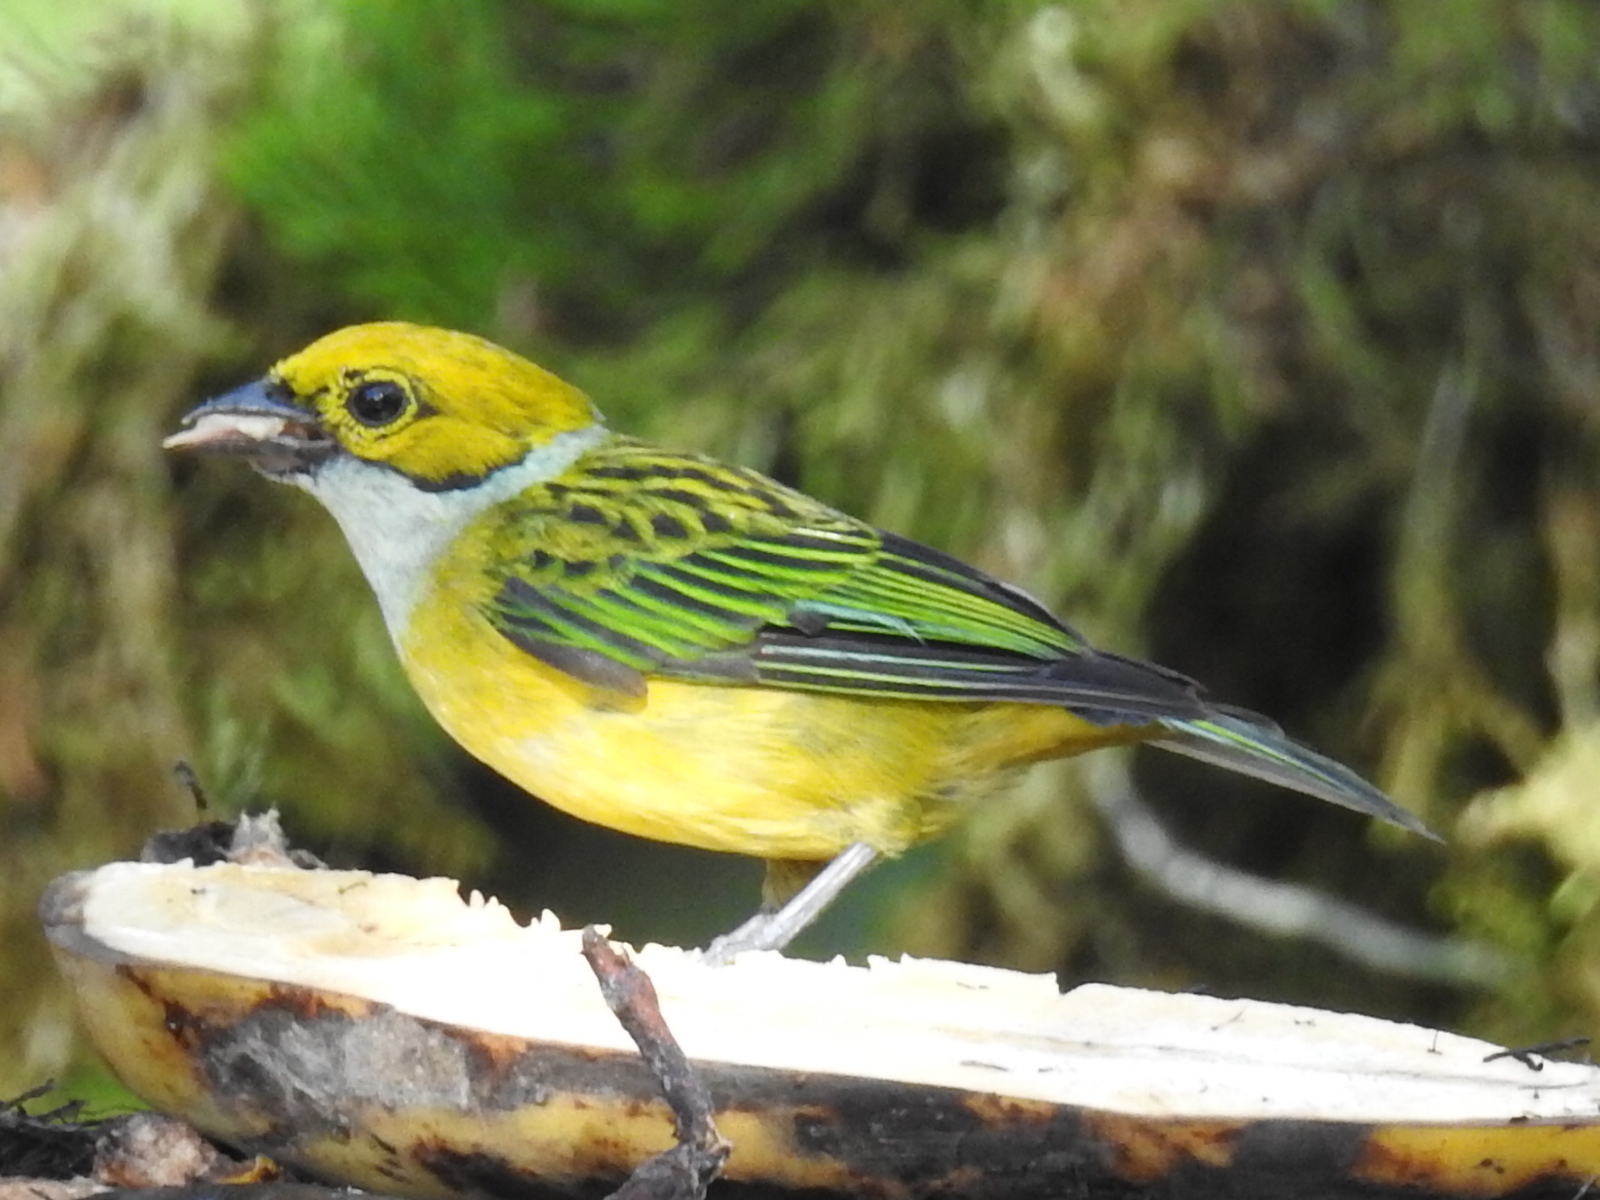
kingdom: Animalia
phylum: Chordata
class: Aves
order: Passeriformes
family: Thraupidae
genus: Tangara
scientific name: Tangara icterocephala
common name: Silver-throated tanager
